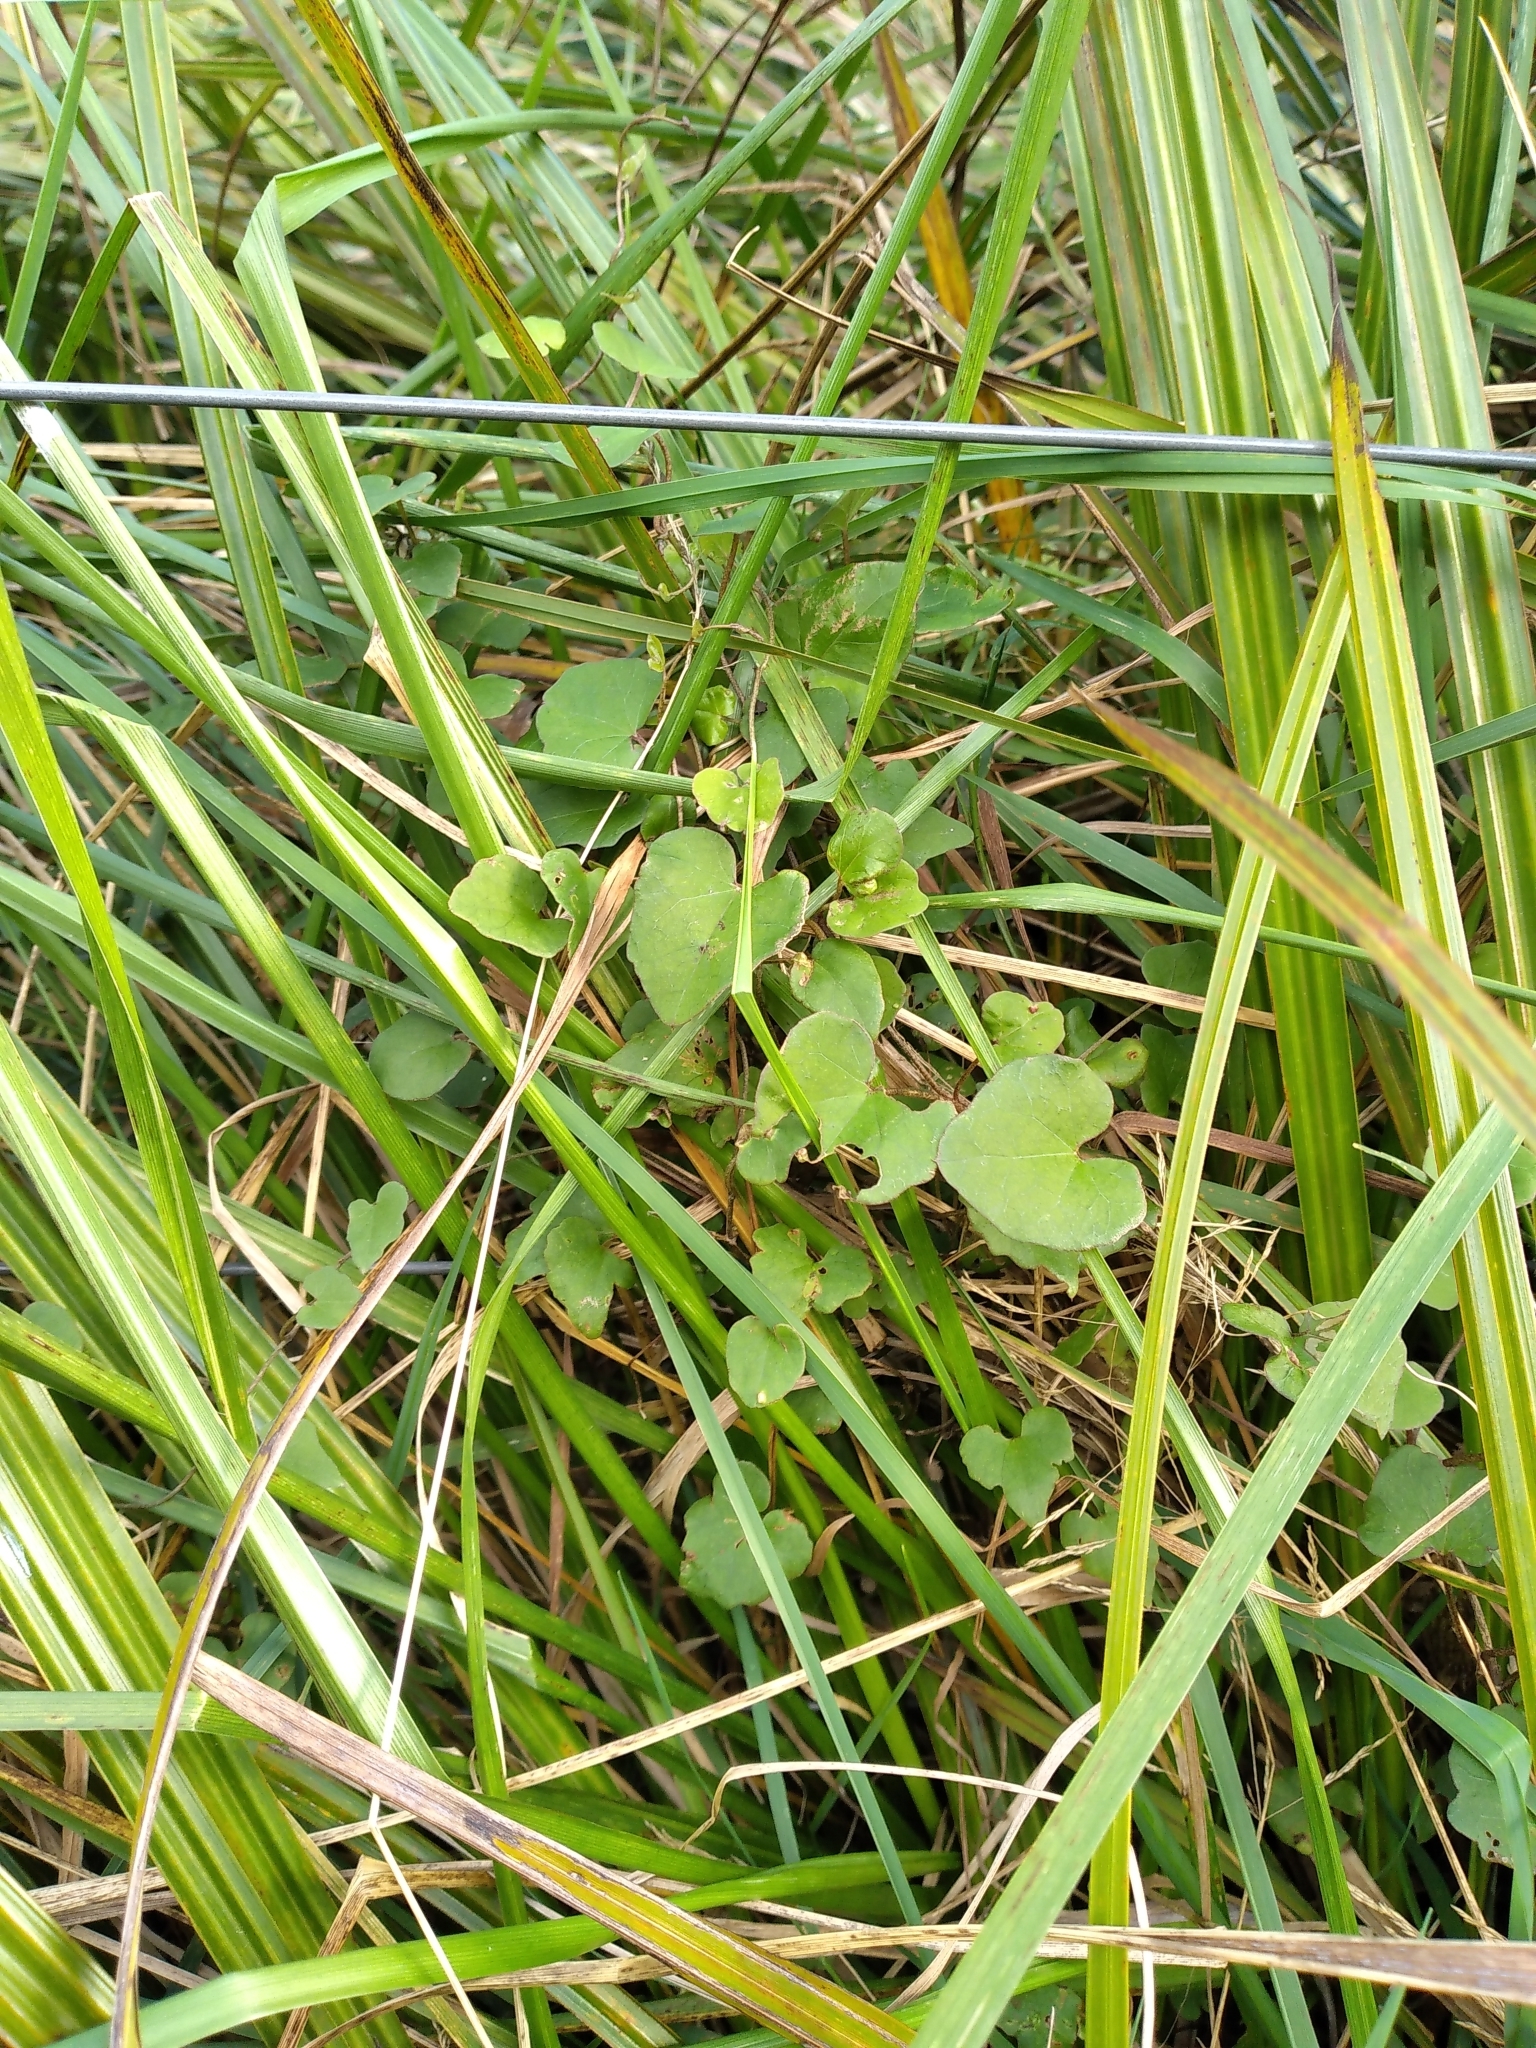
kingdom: Plantae
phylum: Tracheophyta
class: Magnoliopsida
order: Solanales
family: Convolvulaceae
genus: Calystegia
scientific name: Calystegia tuguriorum
